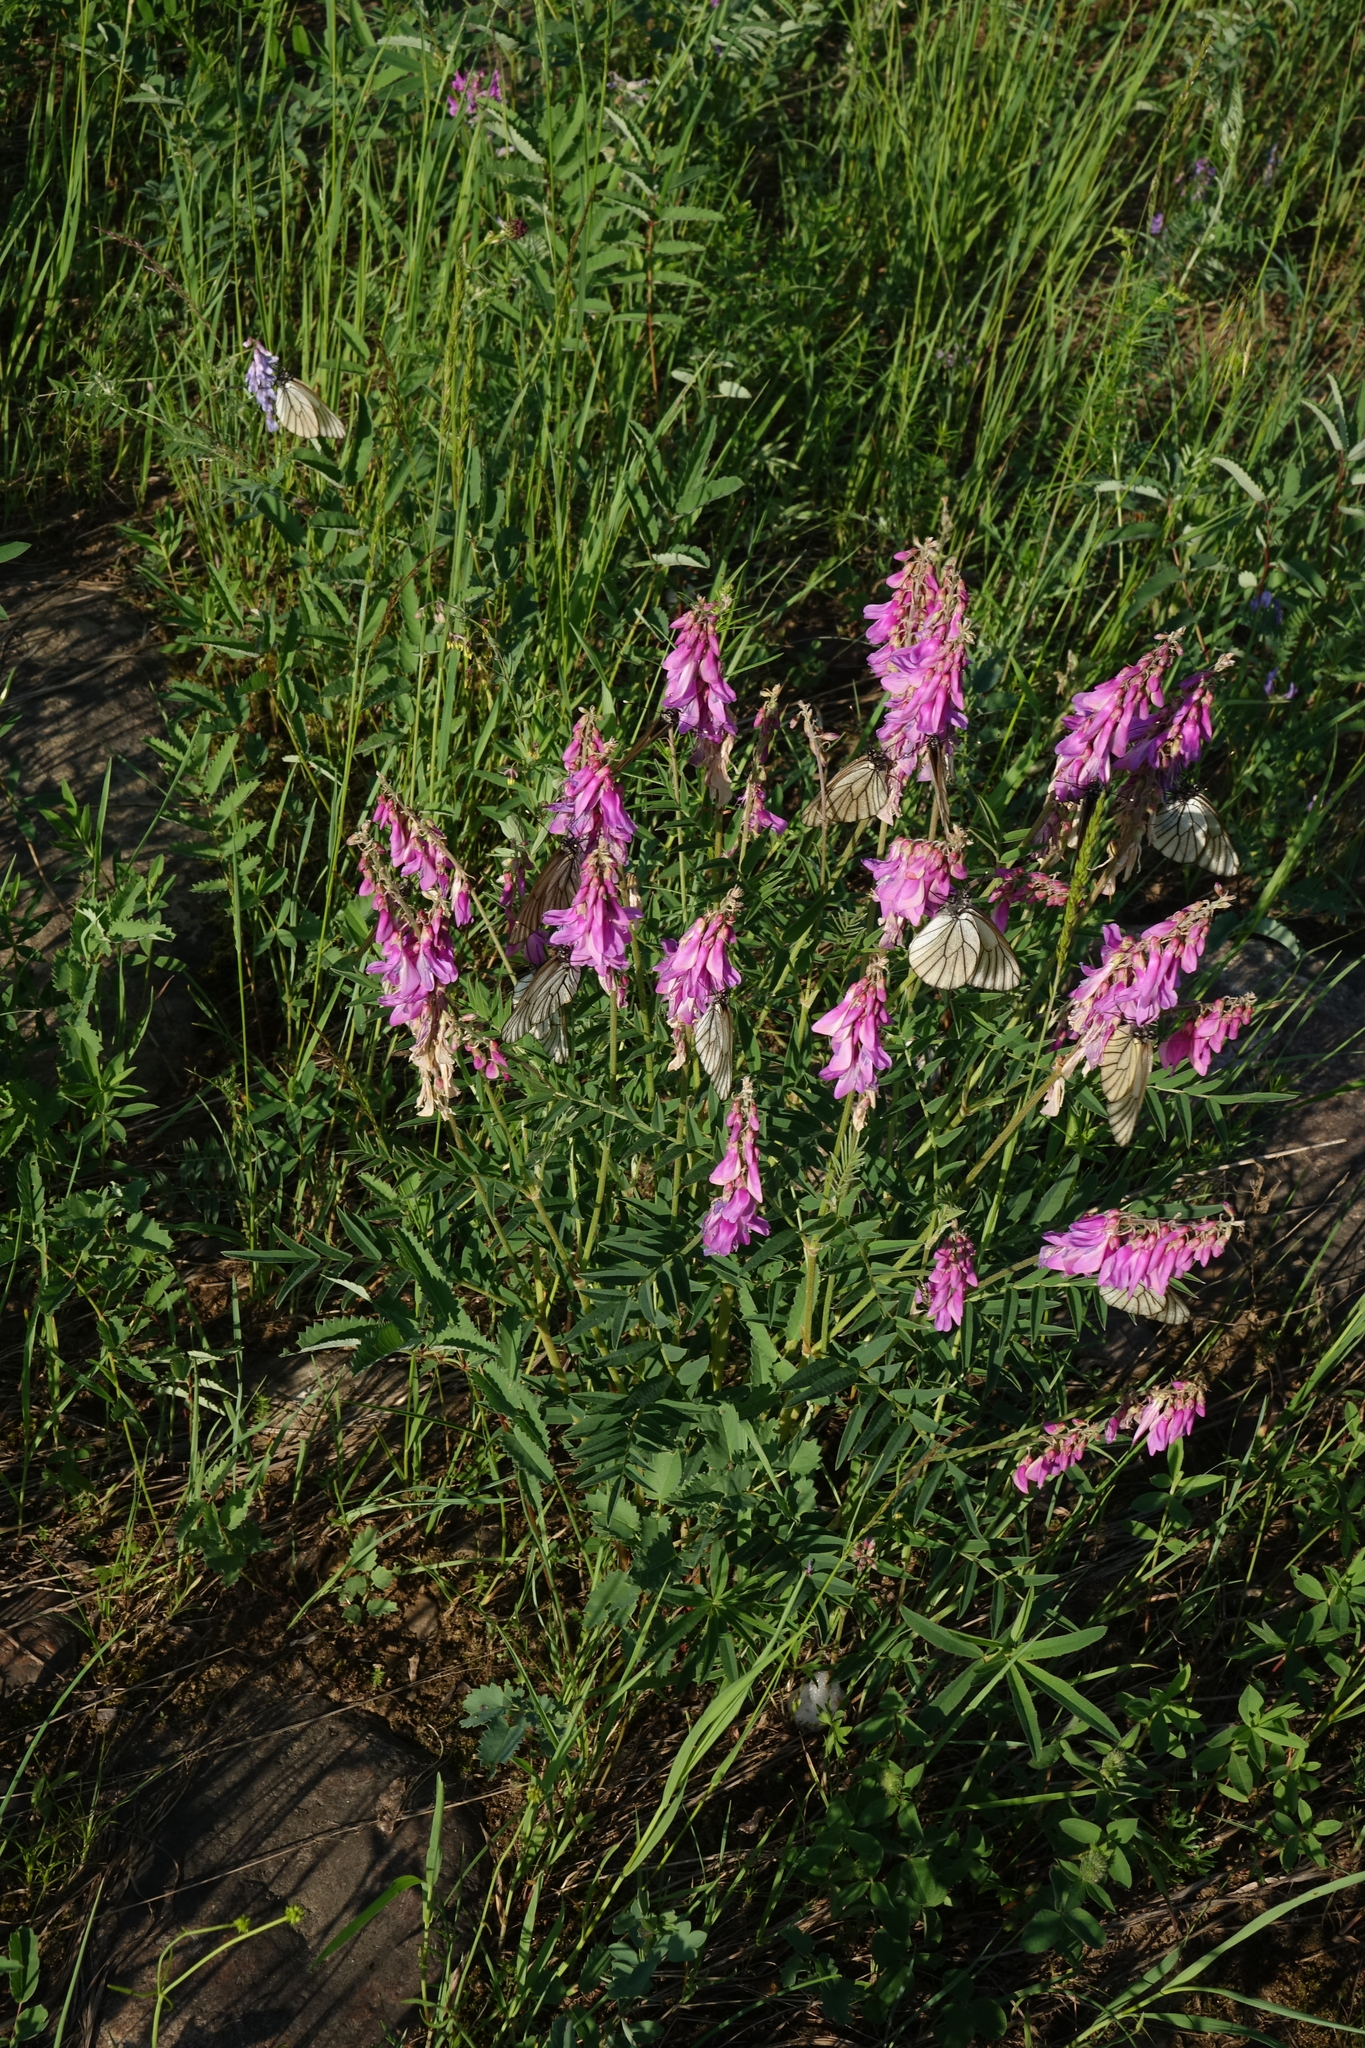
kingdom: Plantae
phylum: Tracheophyta
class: Magnoliopsida
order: Fabales
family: Fabaceae
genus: Hedysarum
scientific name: Hedysarum branthii
